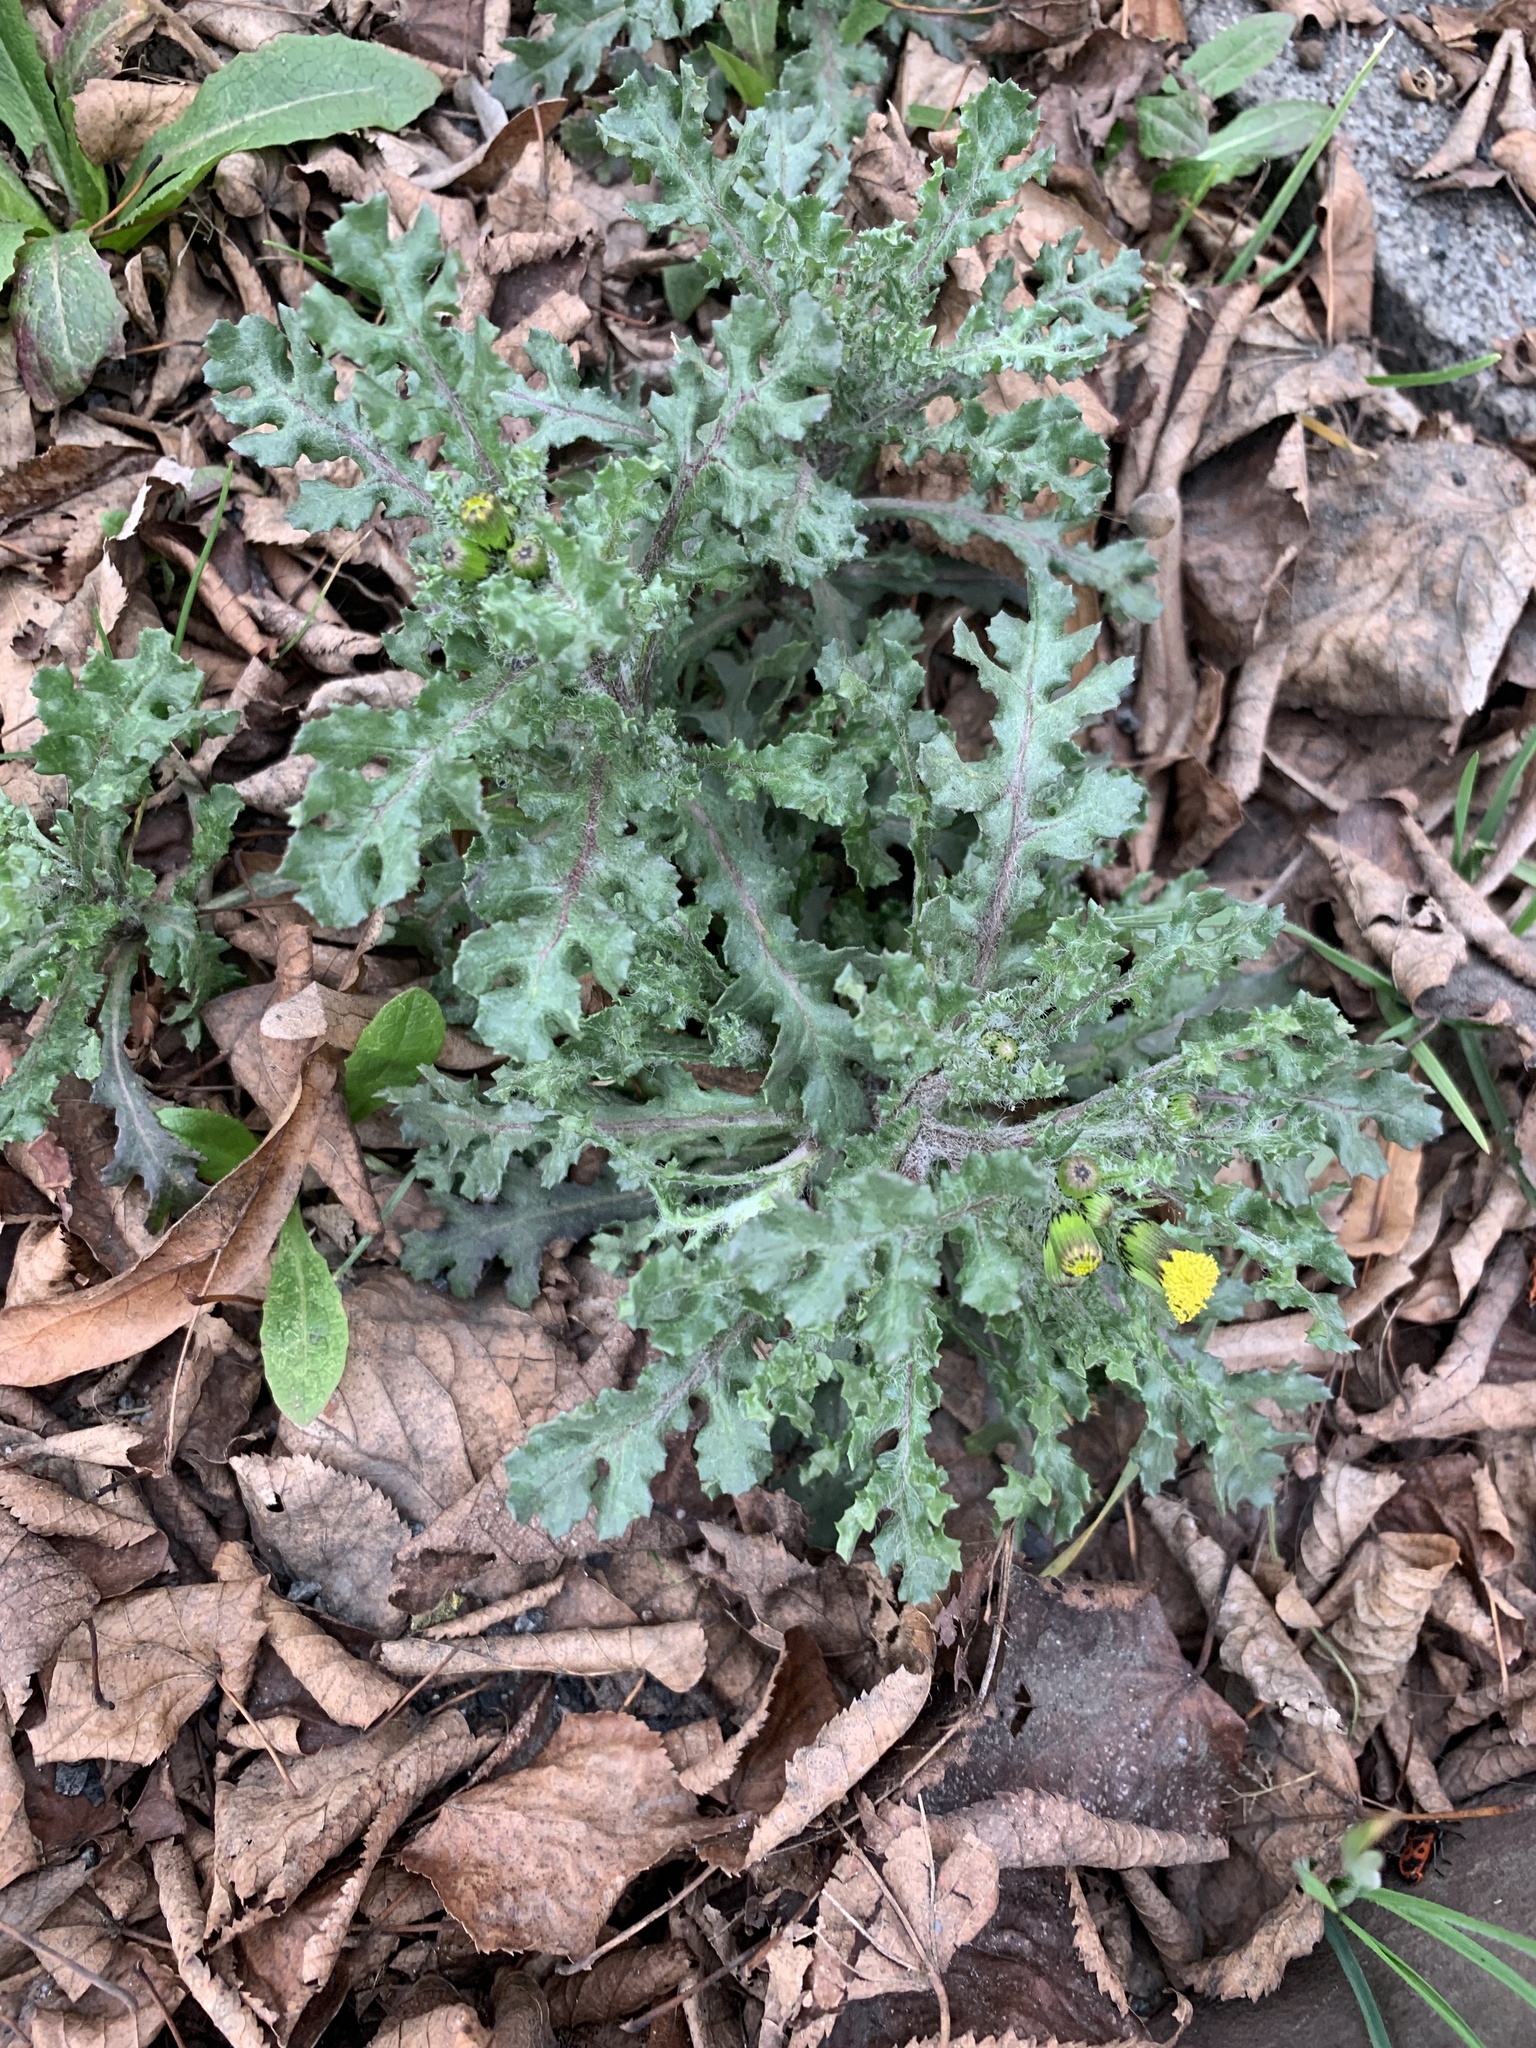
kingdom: Plantae
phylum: Tracheophyta
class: Magnoliopsida
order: Asterales
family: Asteraceae
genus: Senecio
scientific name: Senecio vulgaris
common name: Old-man-in-the-spring
